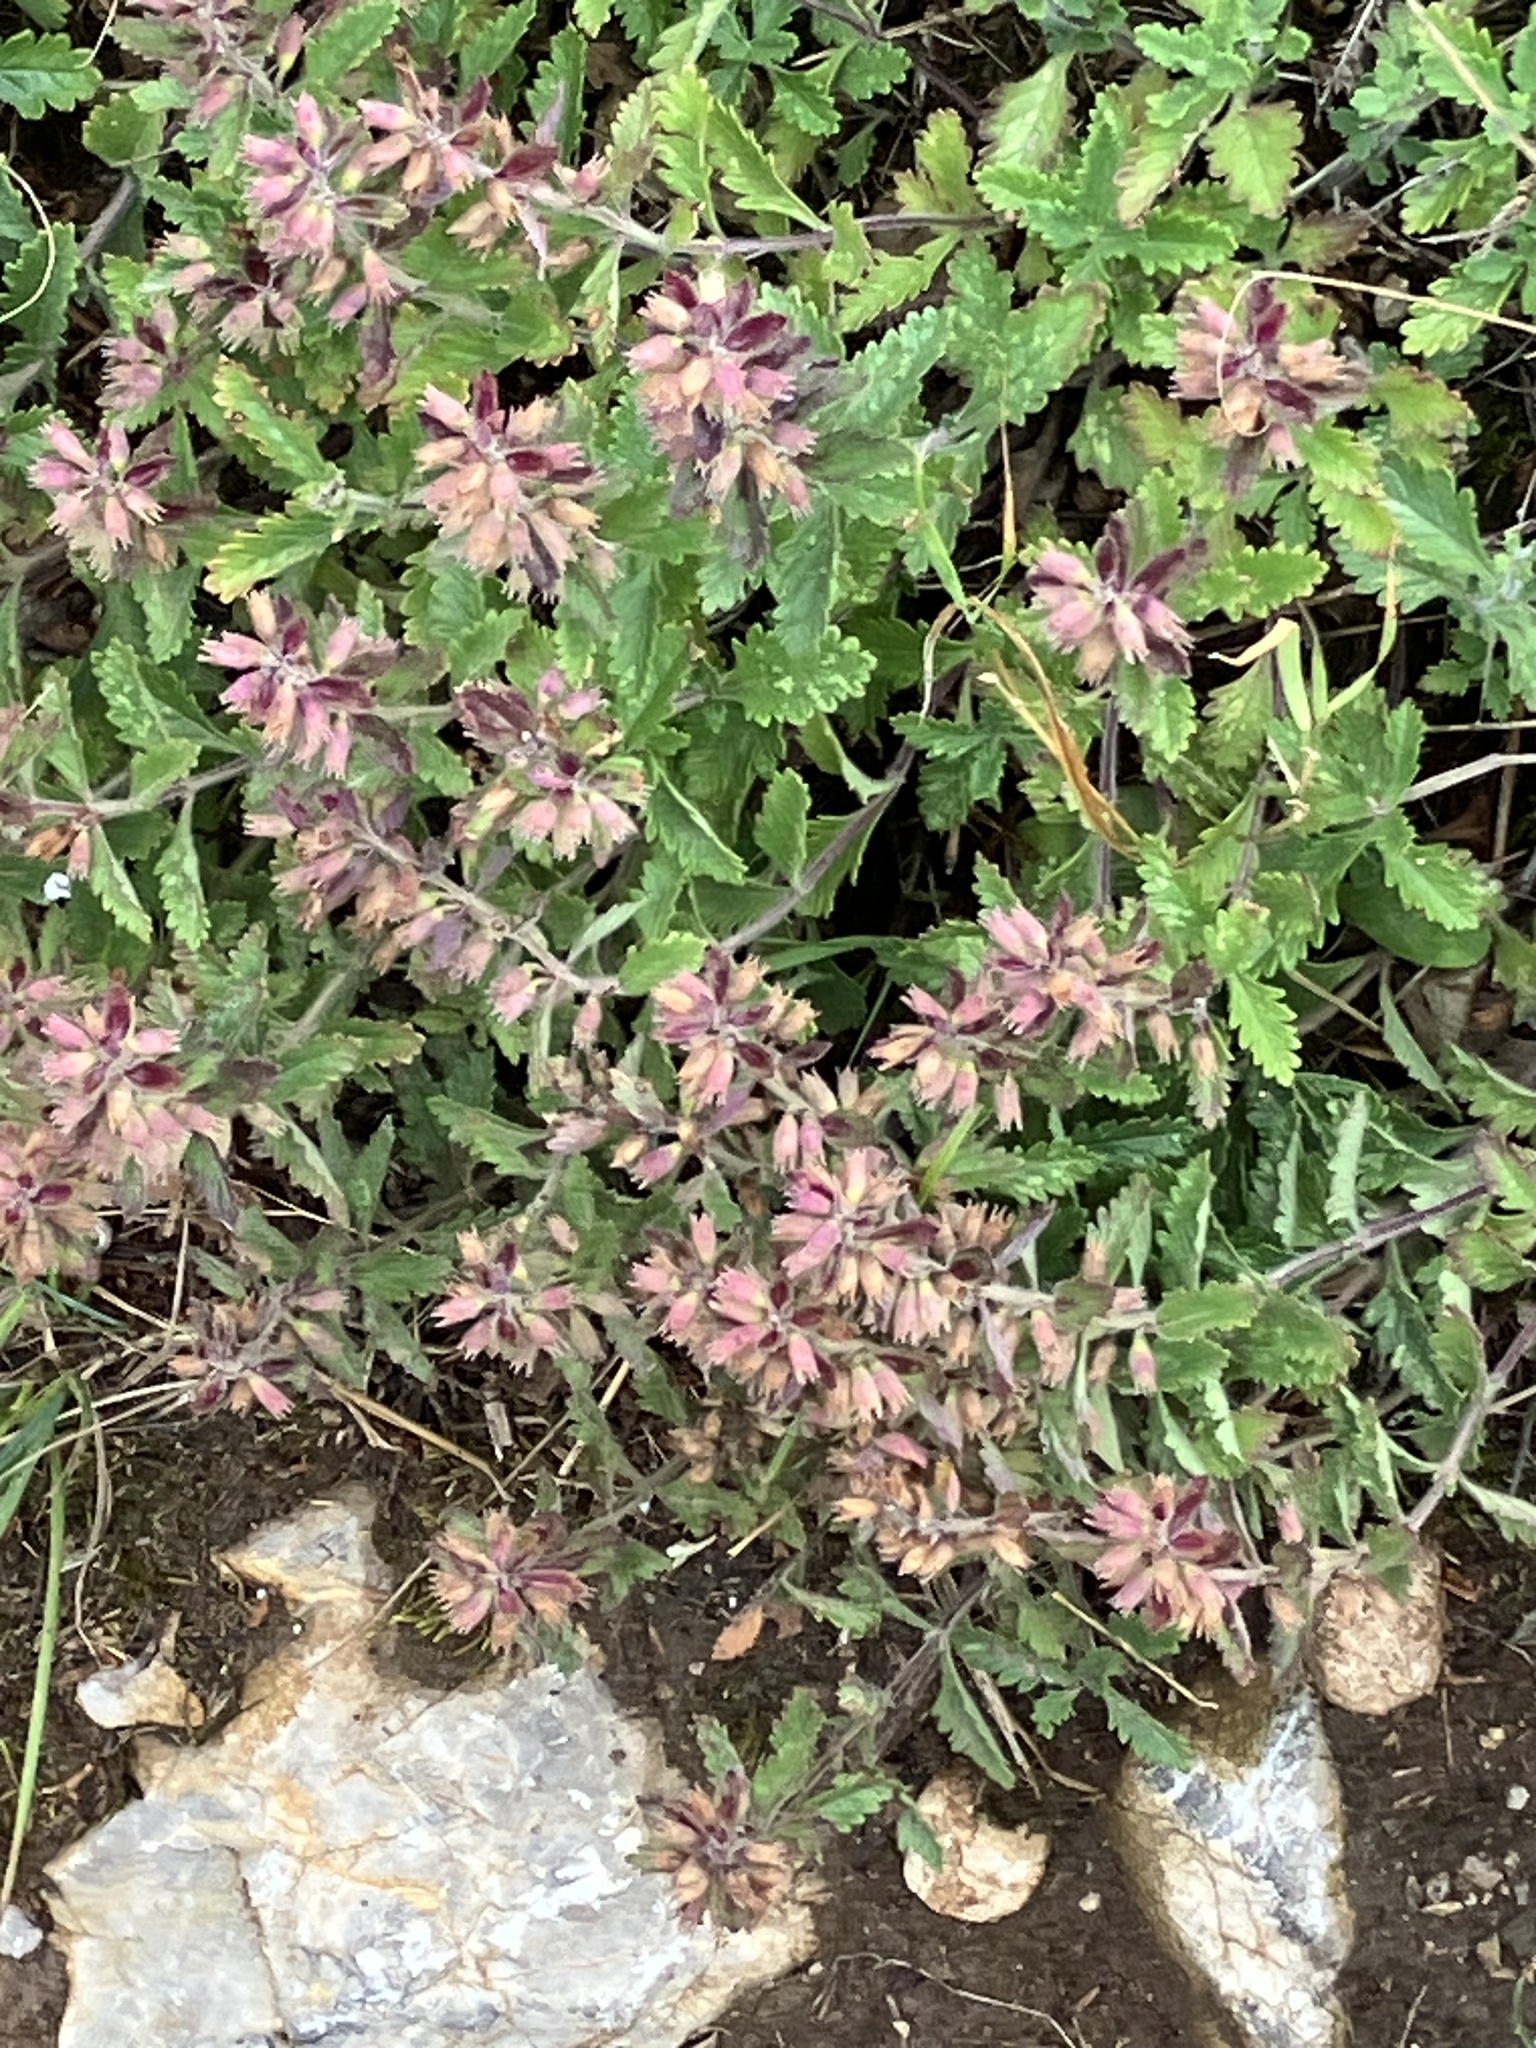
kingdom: Plantae
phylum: Tracheophyta
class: Magnoliopsida
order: Lamiales
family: Lamiaceae
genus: Teucrium
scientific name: Teucrium chamaedrys
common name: Wall germander
